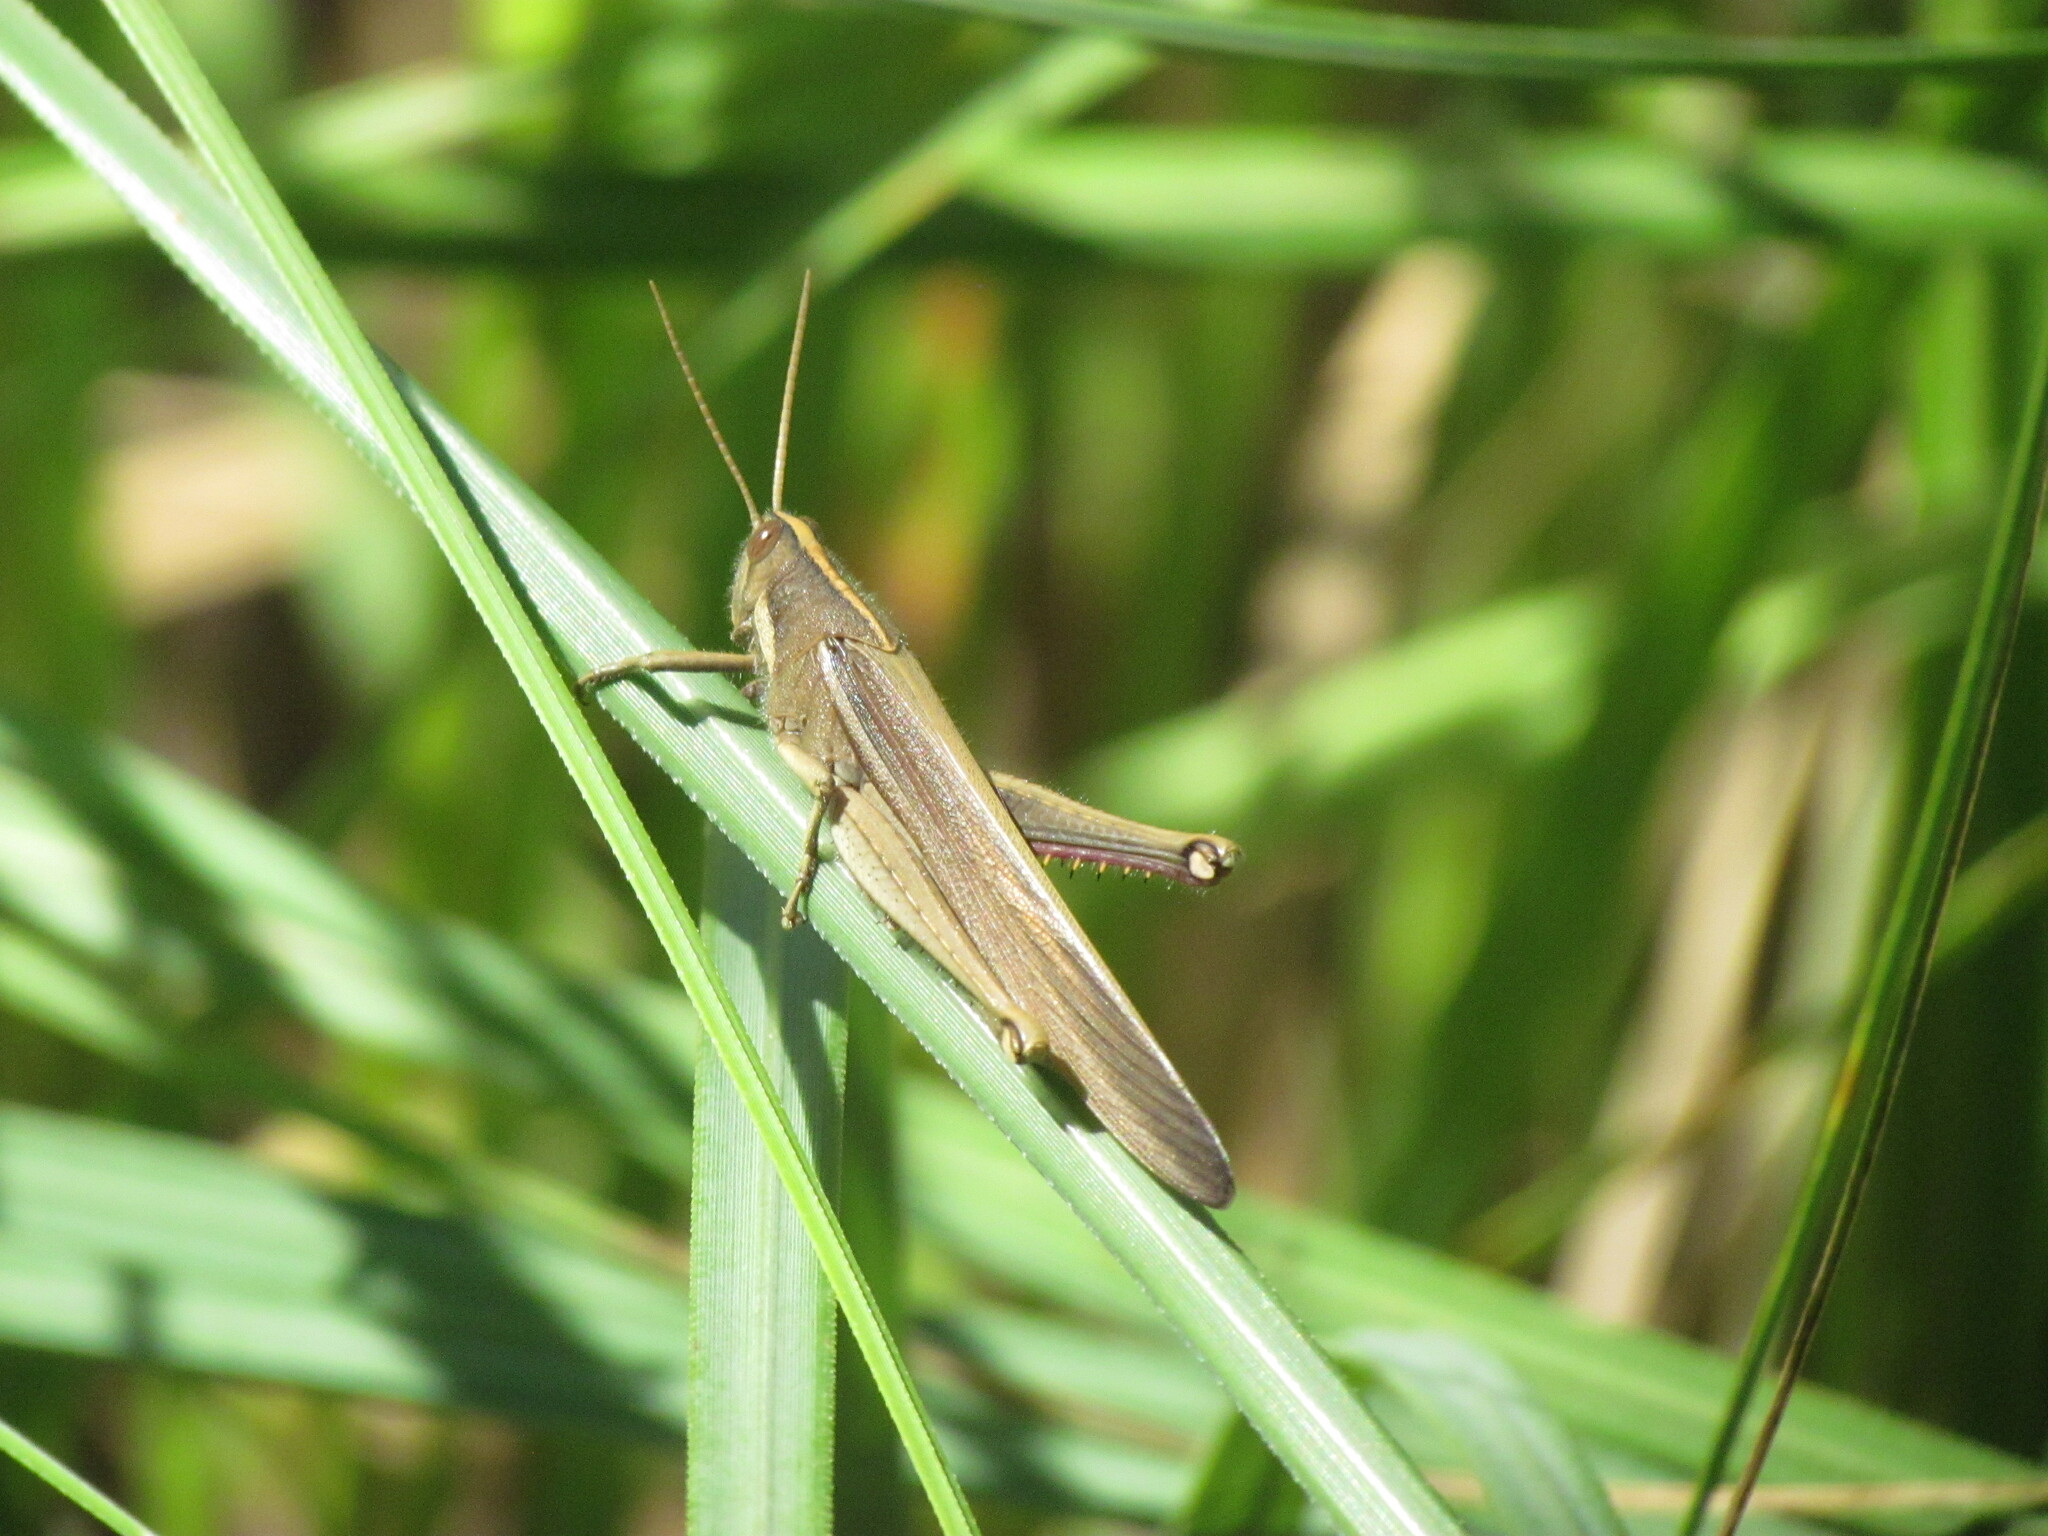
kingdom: Animalia
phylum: Arthropoda
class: Insecta
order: Orthoptera
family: Acrididae
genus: Schistocerca
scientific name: Schistocerca flavofasciata
